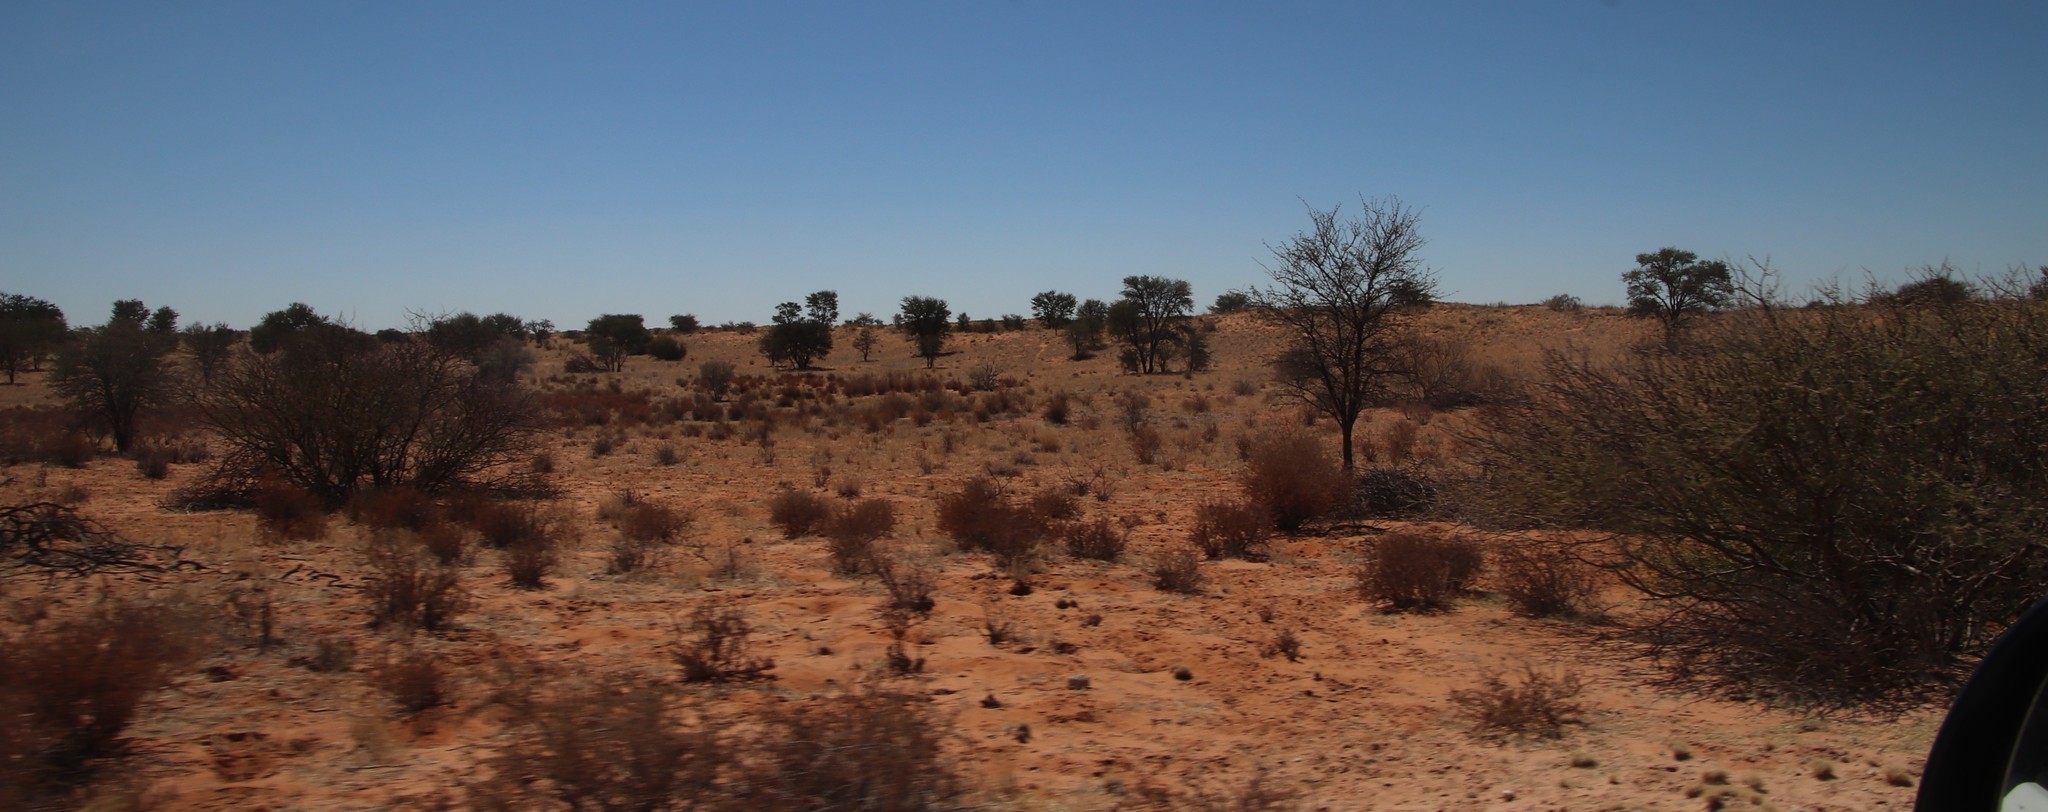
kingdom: Plantae
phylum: Tracheophyta
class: Magnoliopsida
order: Lamiales
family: Bignoniaceae
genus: Rhigozum
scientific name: Rhigozum trichotomum
